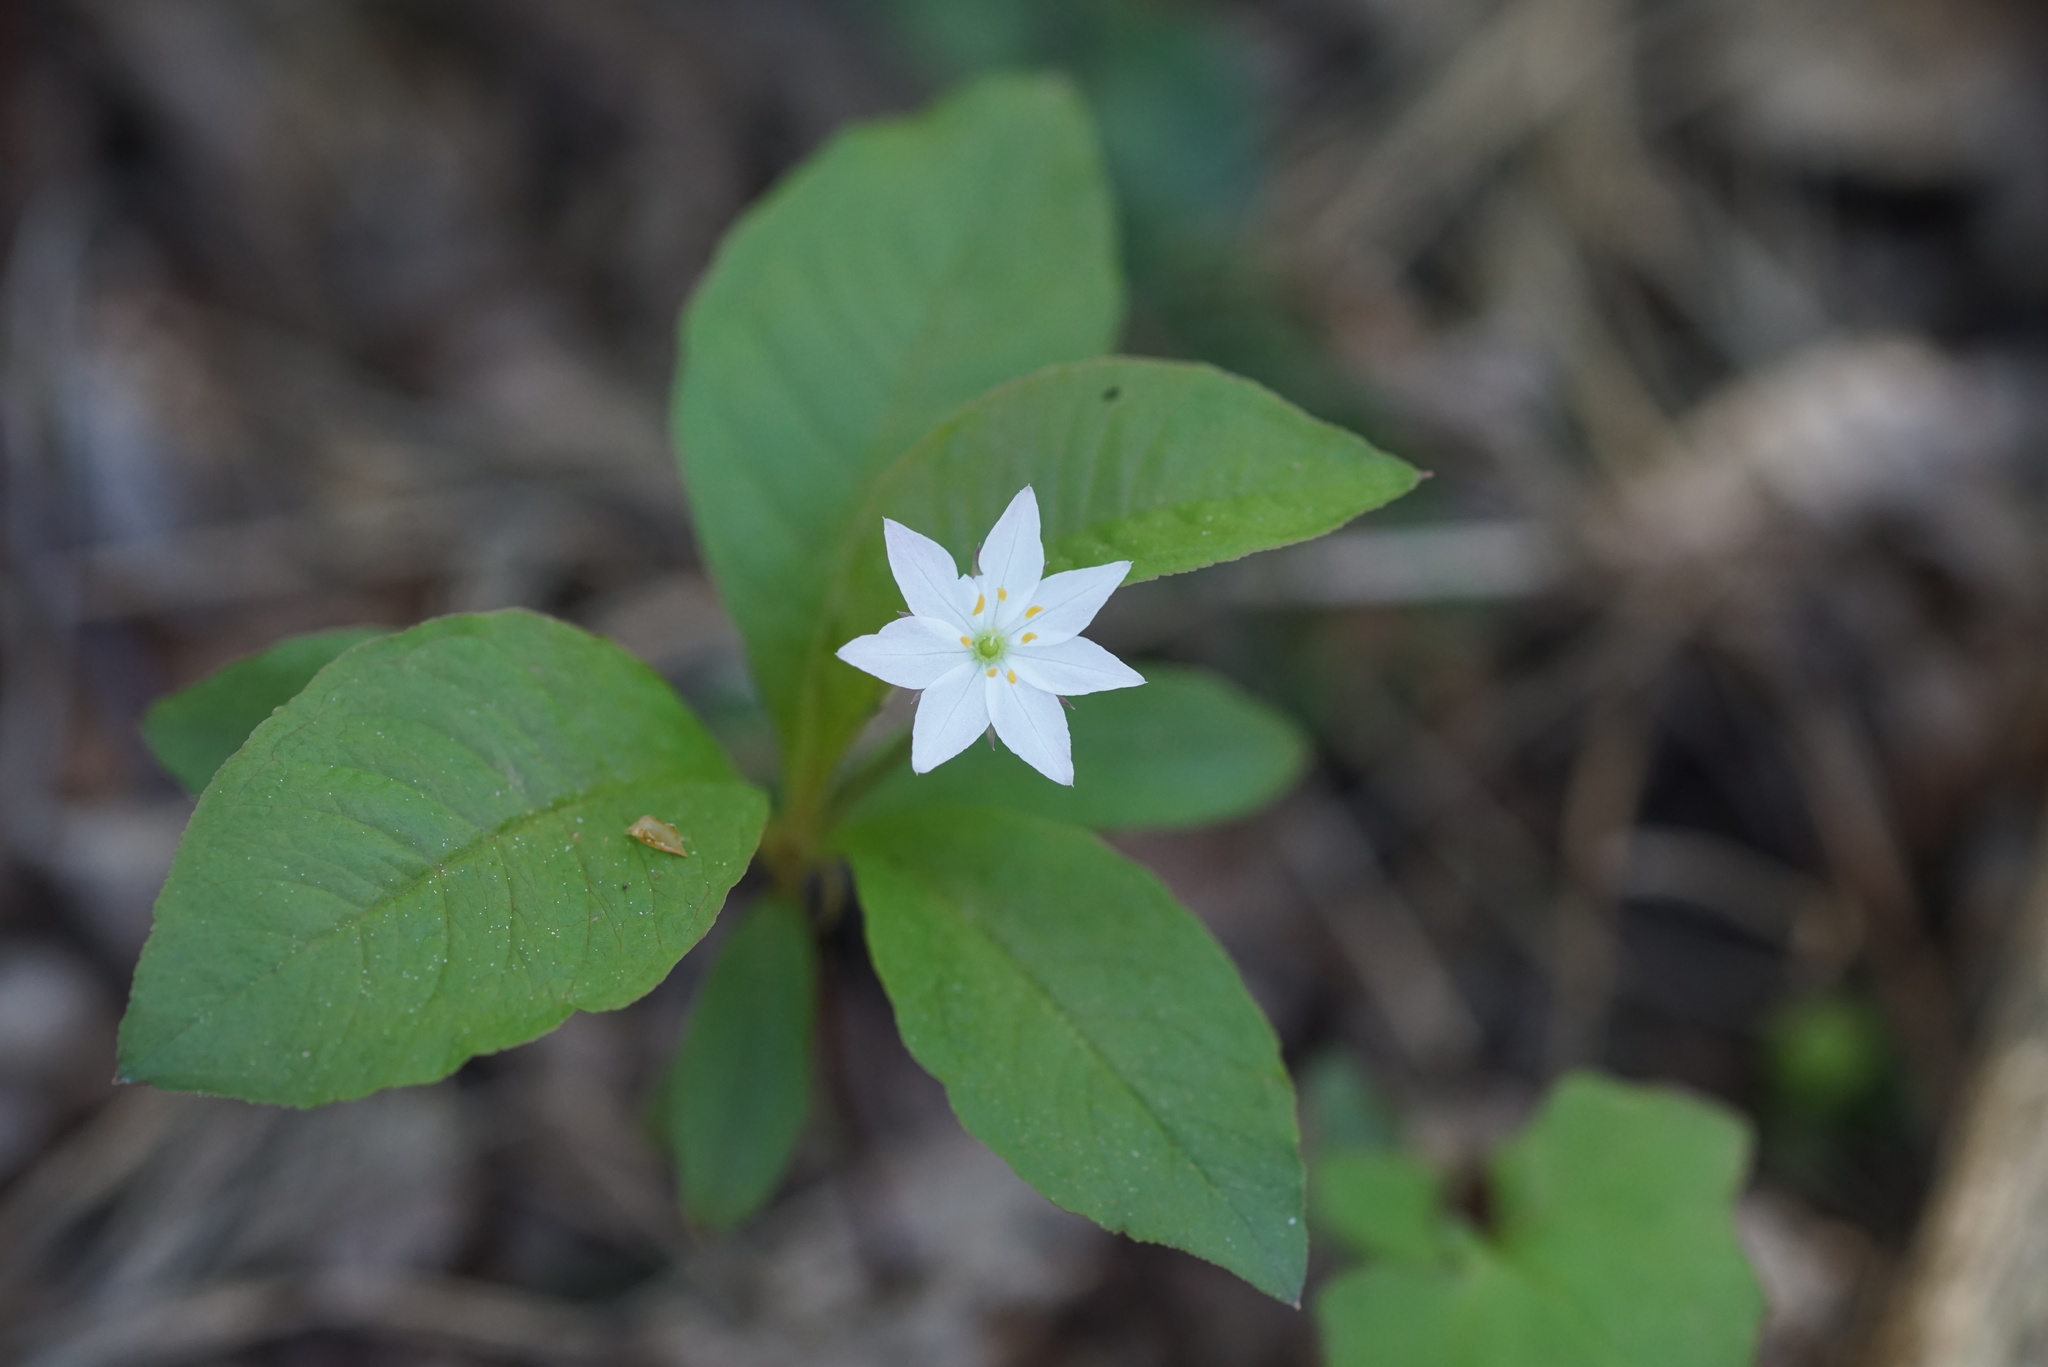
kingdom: Plantae
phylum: Tracheophyta
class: Magnoliopsida
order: Ericales
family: Primulaceae
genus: Lysimachia
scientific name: Lysimachia europaea
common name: Arctic starflower
